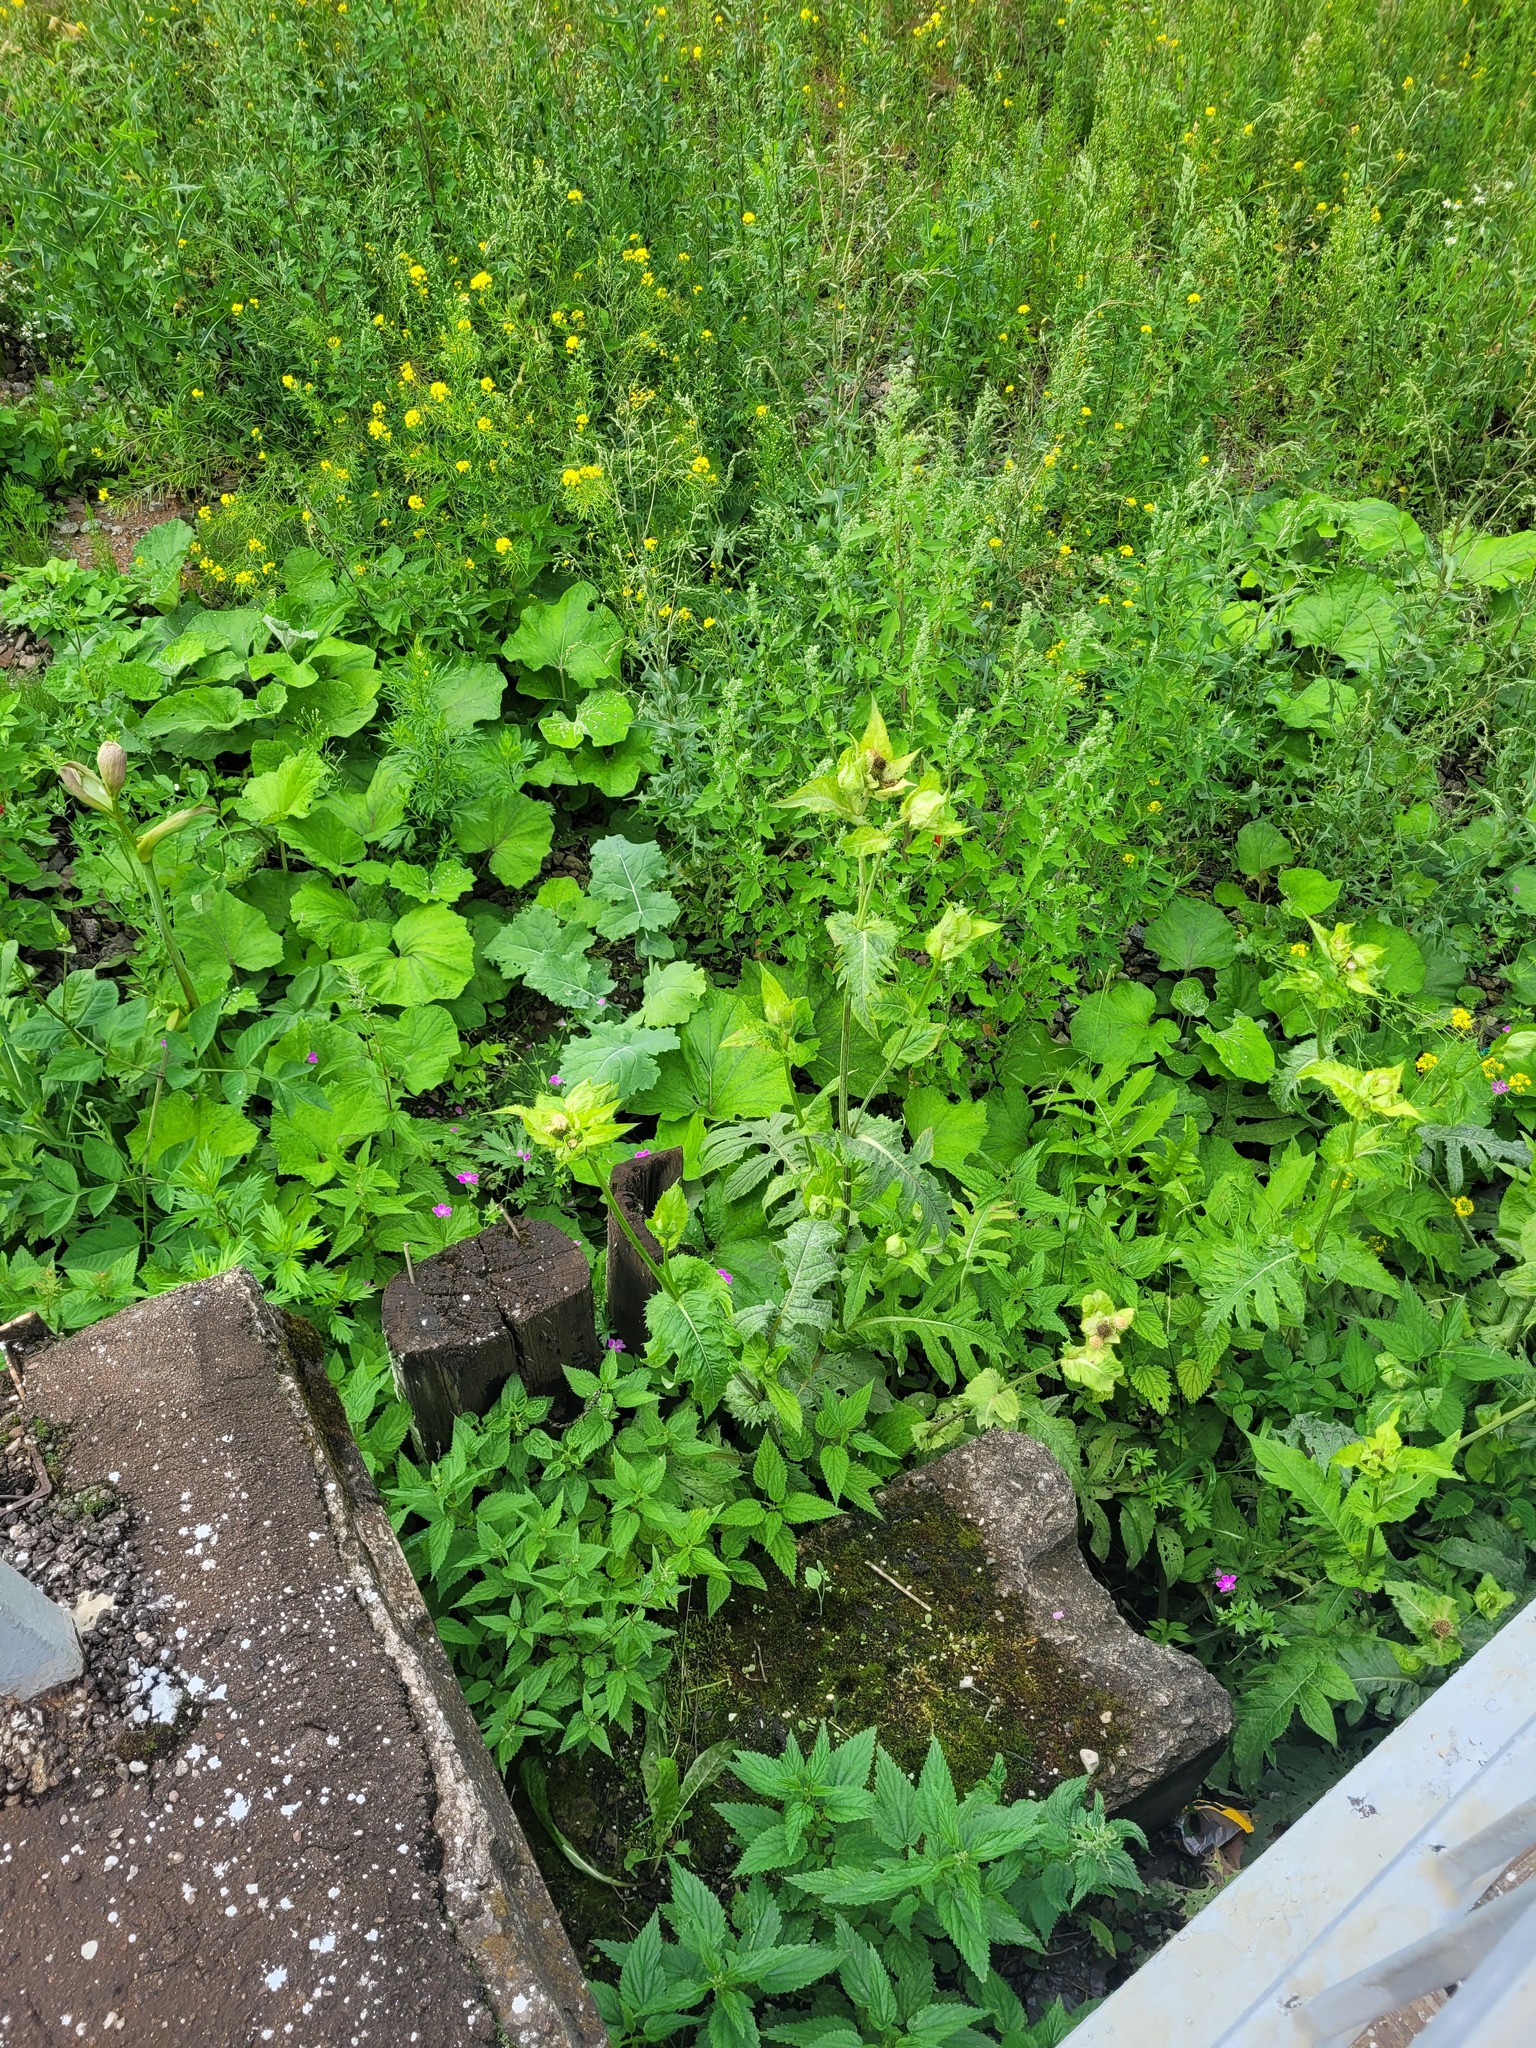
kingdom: Plantae
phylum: Tracheophyta
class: Magnoliopsida
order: Asterales
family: Asteraceae
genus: Cirsium
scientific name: Cirsium oleraceum
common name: Cabbage thistle
